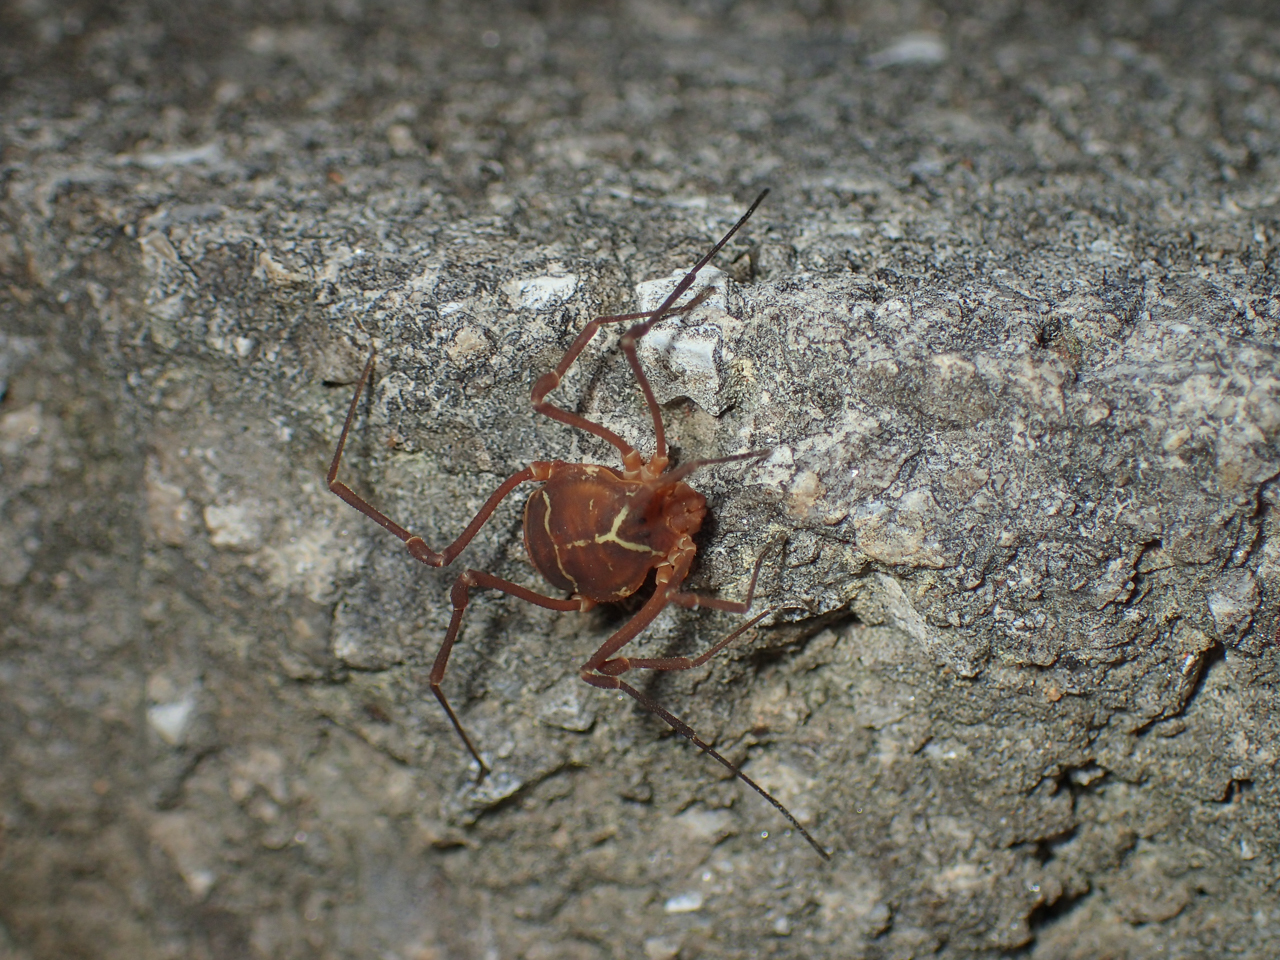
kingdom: Animalia
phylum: Arthropoda
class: Arachnida
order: Opiliones
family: Cosmetidae
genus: Libitioides
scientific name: Libitioides sayi
